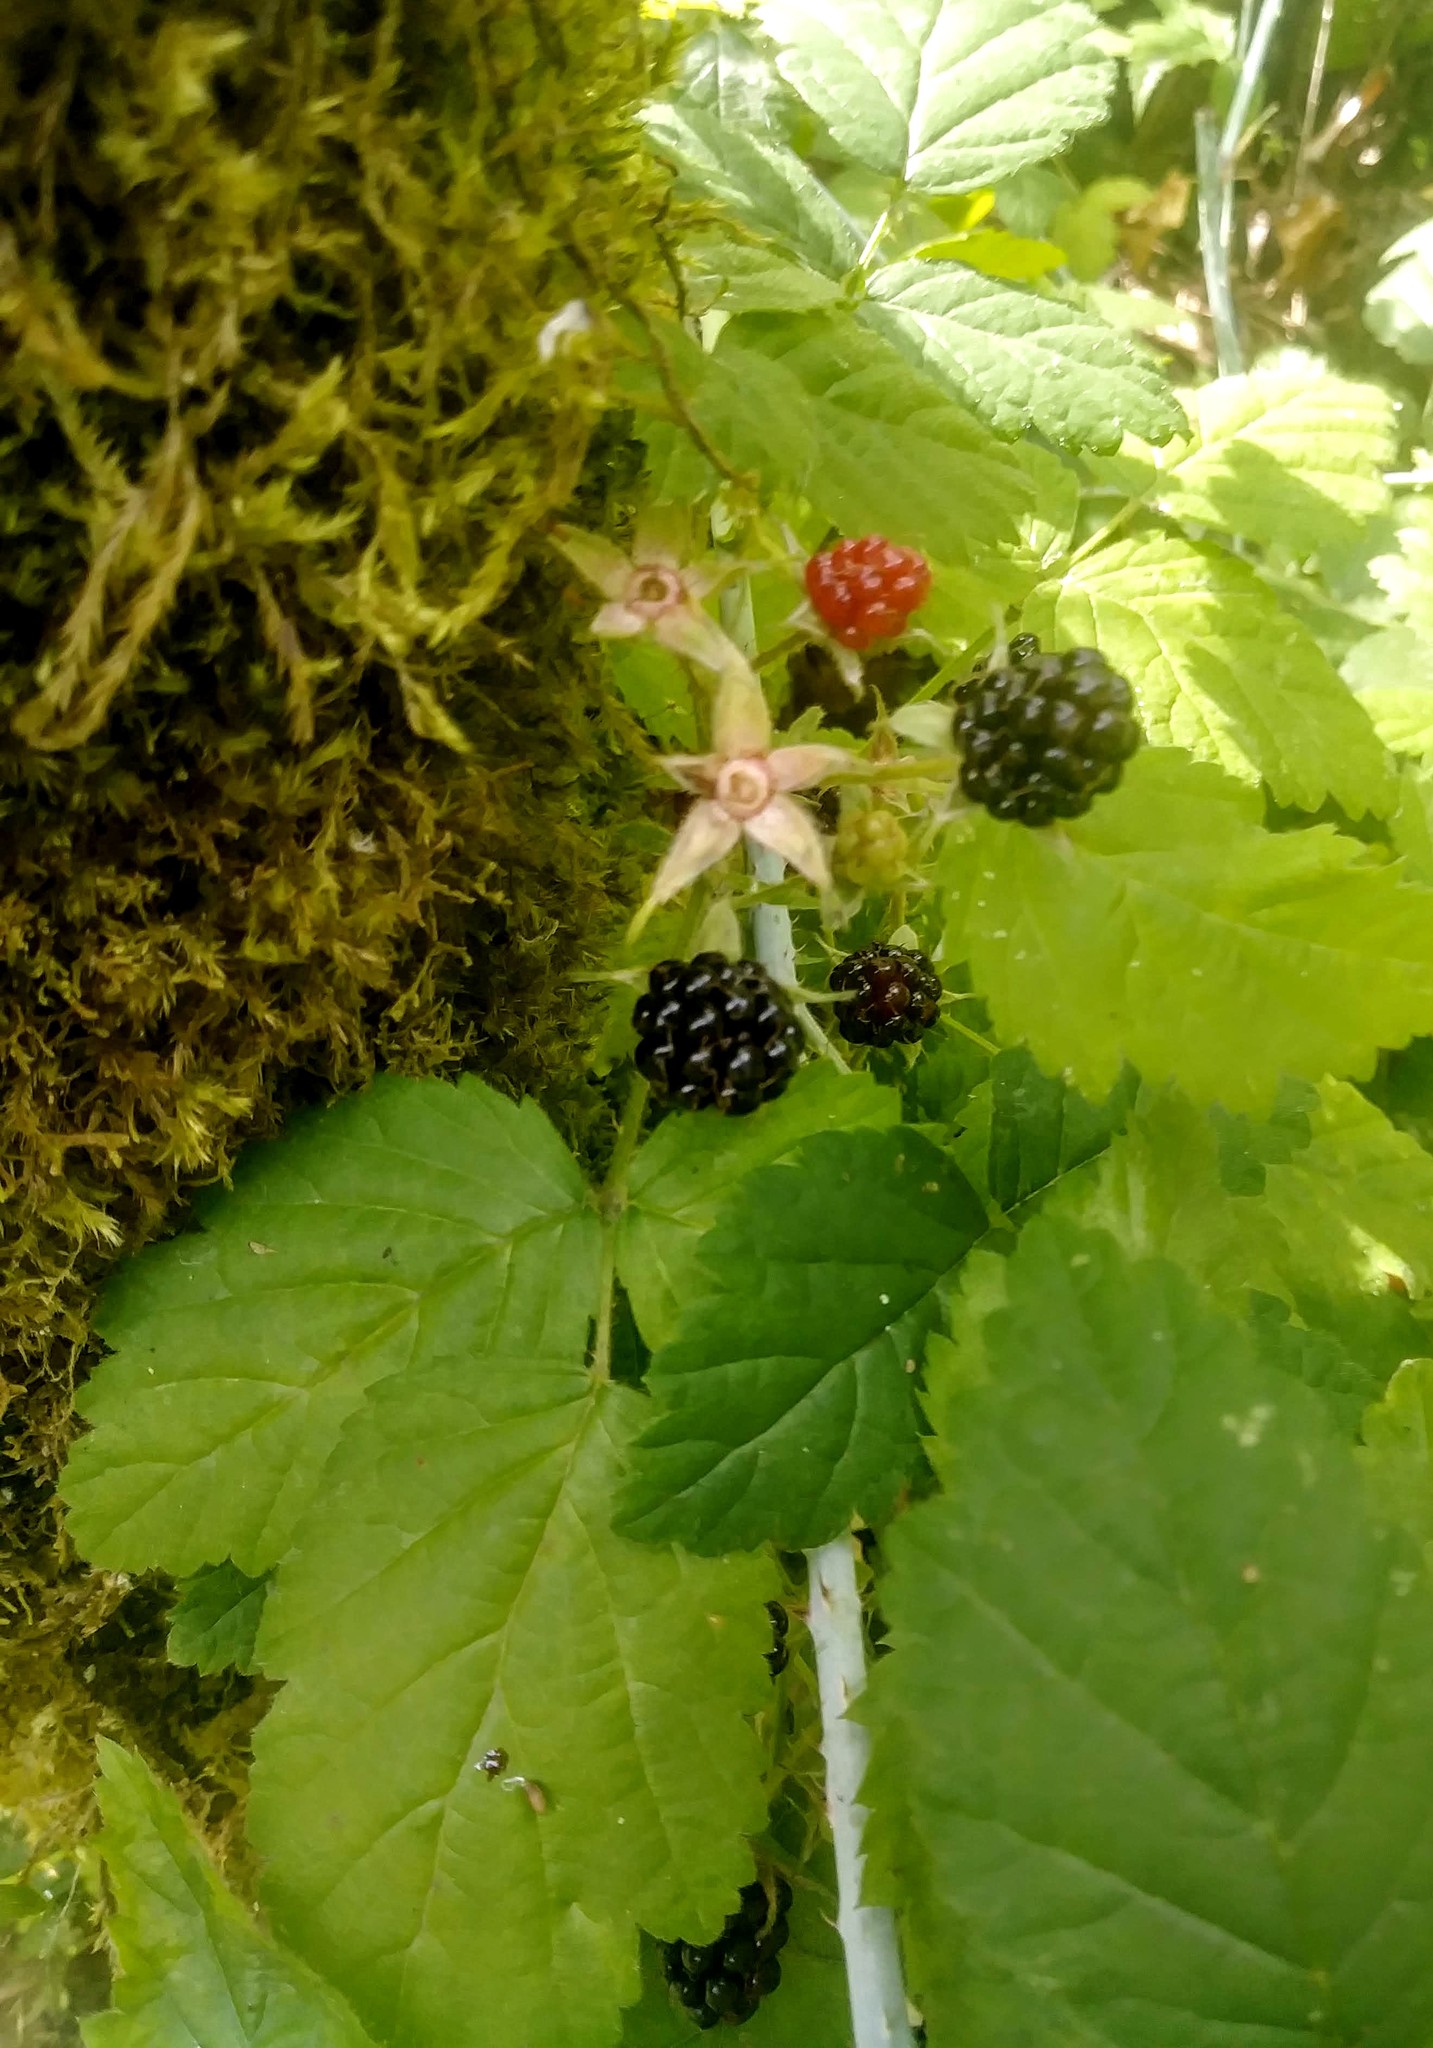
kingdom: Plantae
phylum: Tracheophyta
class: Magnoliopsida
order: Rosales
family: Rosaceae
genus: Rubus
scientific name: Rubus ursinus
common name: Pacific blackberry
